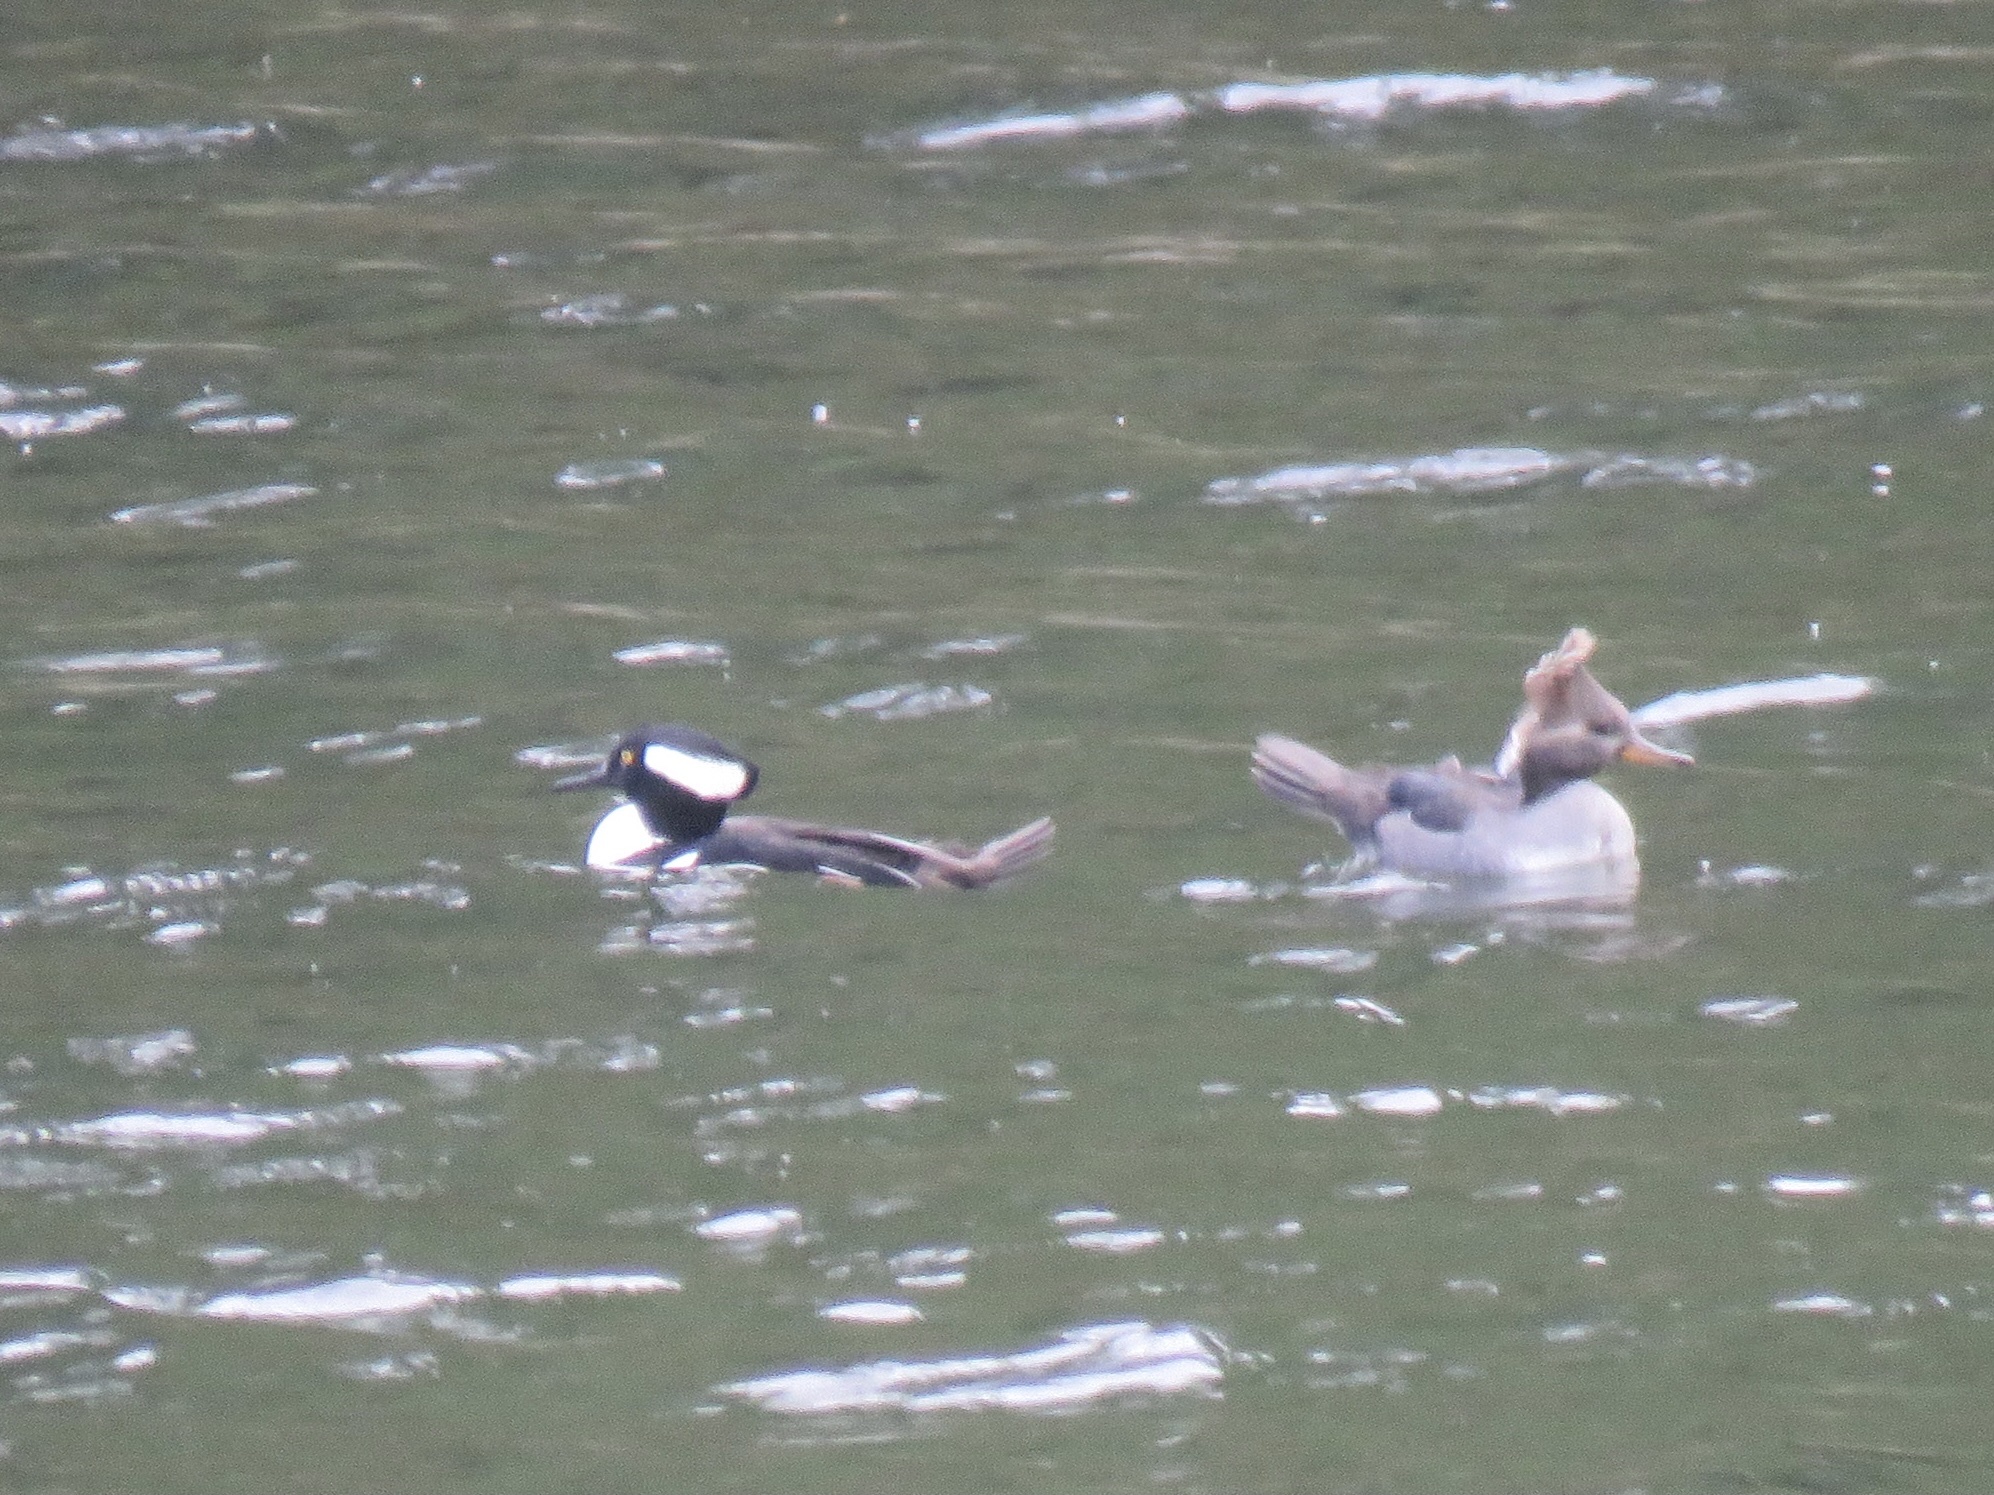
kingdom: Animalia
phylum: Chordata
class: Aves
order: Anseriformes
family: Anatidae
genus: Lophodytes
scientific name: Lophodytes cucullatus
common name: Hooded merganser
